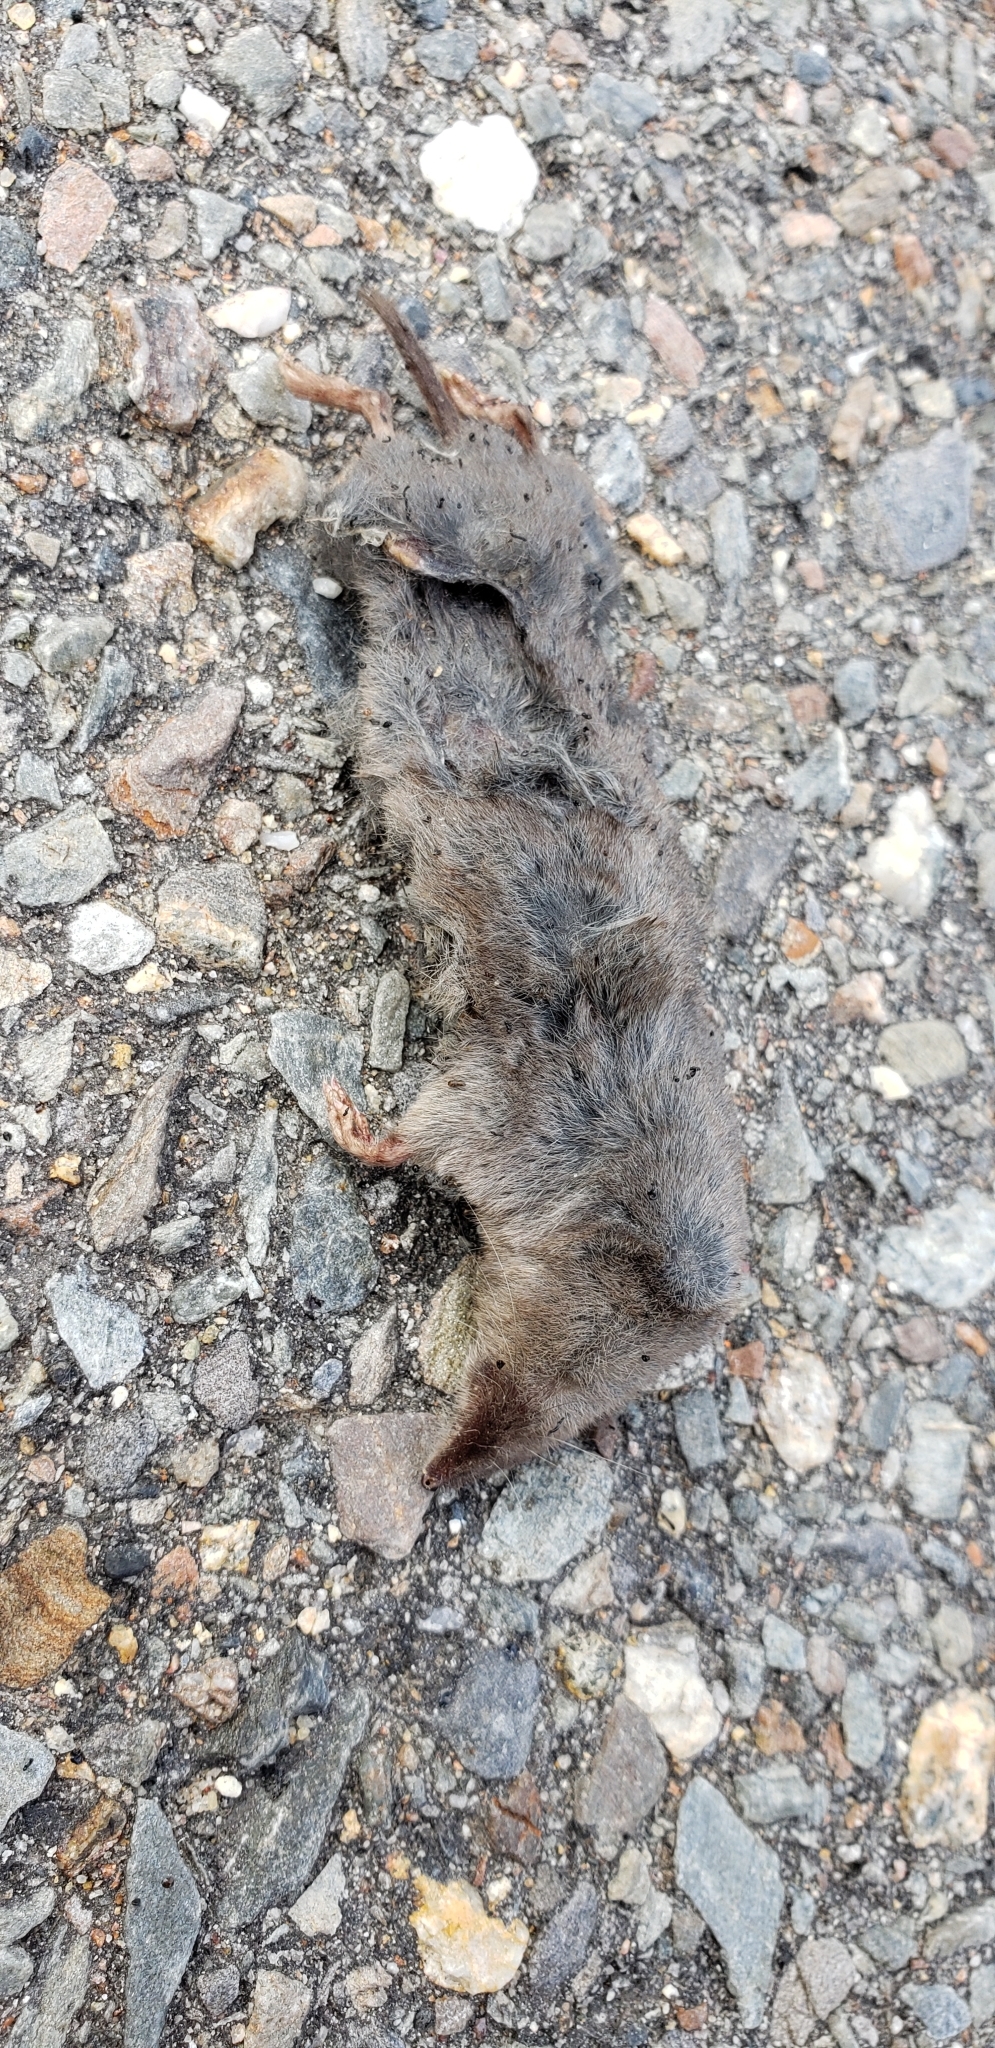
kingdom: Animalia
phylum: Chordata
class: Mammalia
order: Soricomorpha
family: Soricidae
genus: Blarina
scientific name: Blarina brevicauda
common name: Northern short-tailed shrew
